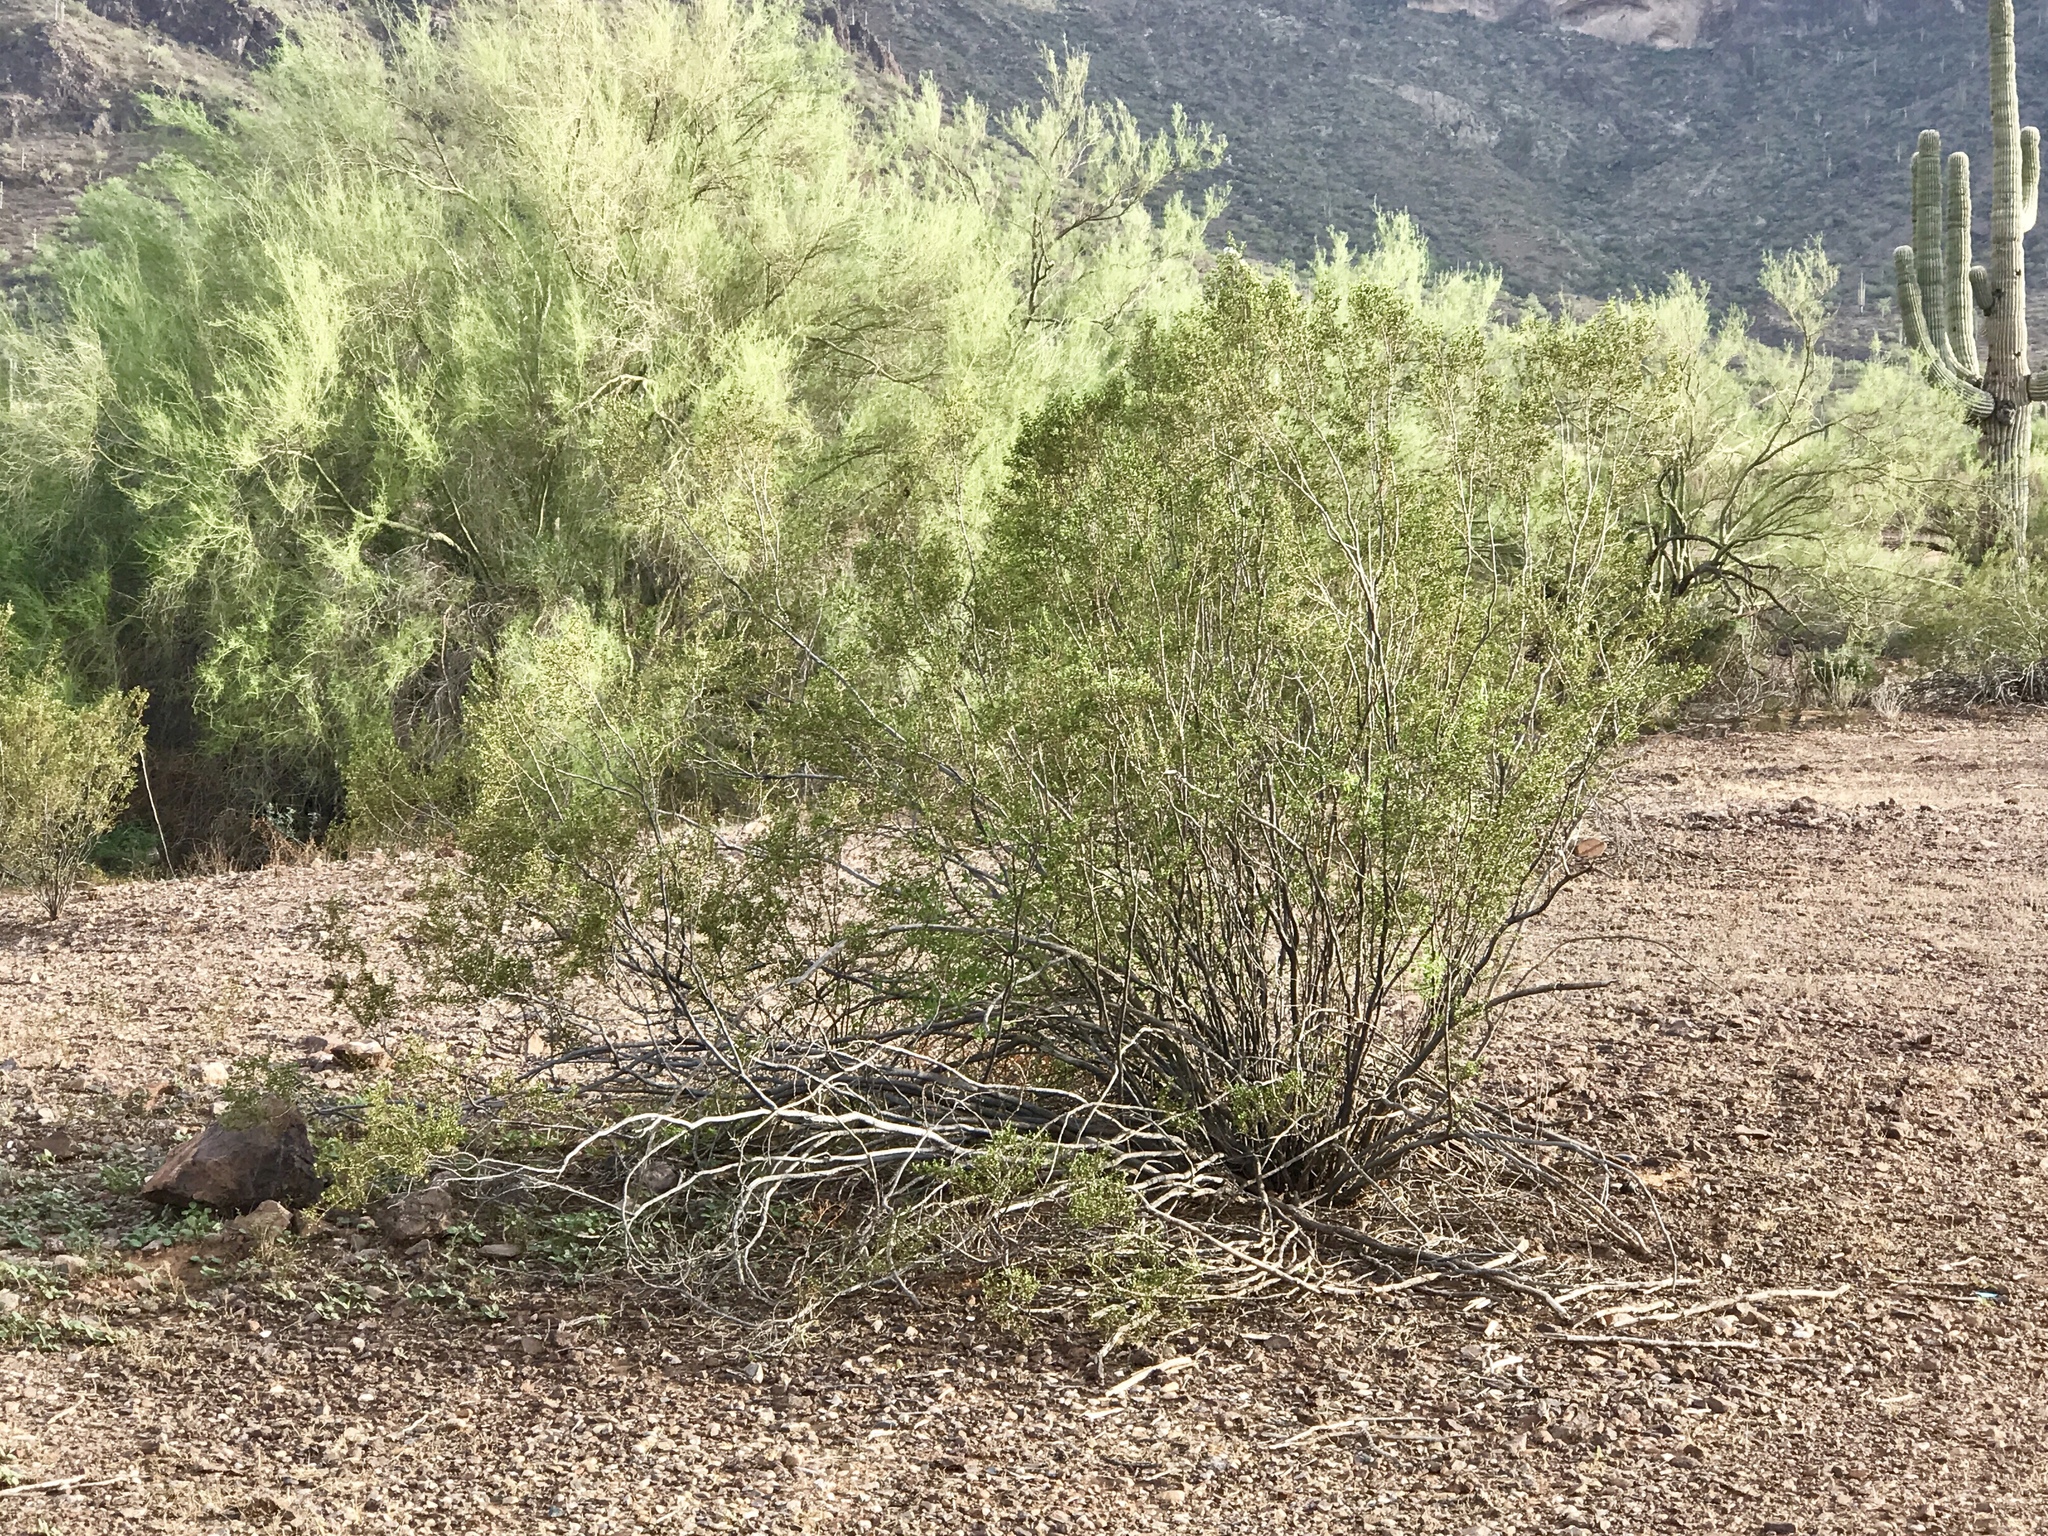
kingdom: Plantae
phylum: Tracheophyta
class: Magnoliopsida
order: Zygophyllales
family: Zygophyllaceae
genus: Larrea
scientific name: Larrea tridentata
